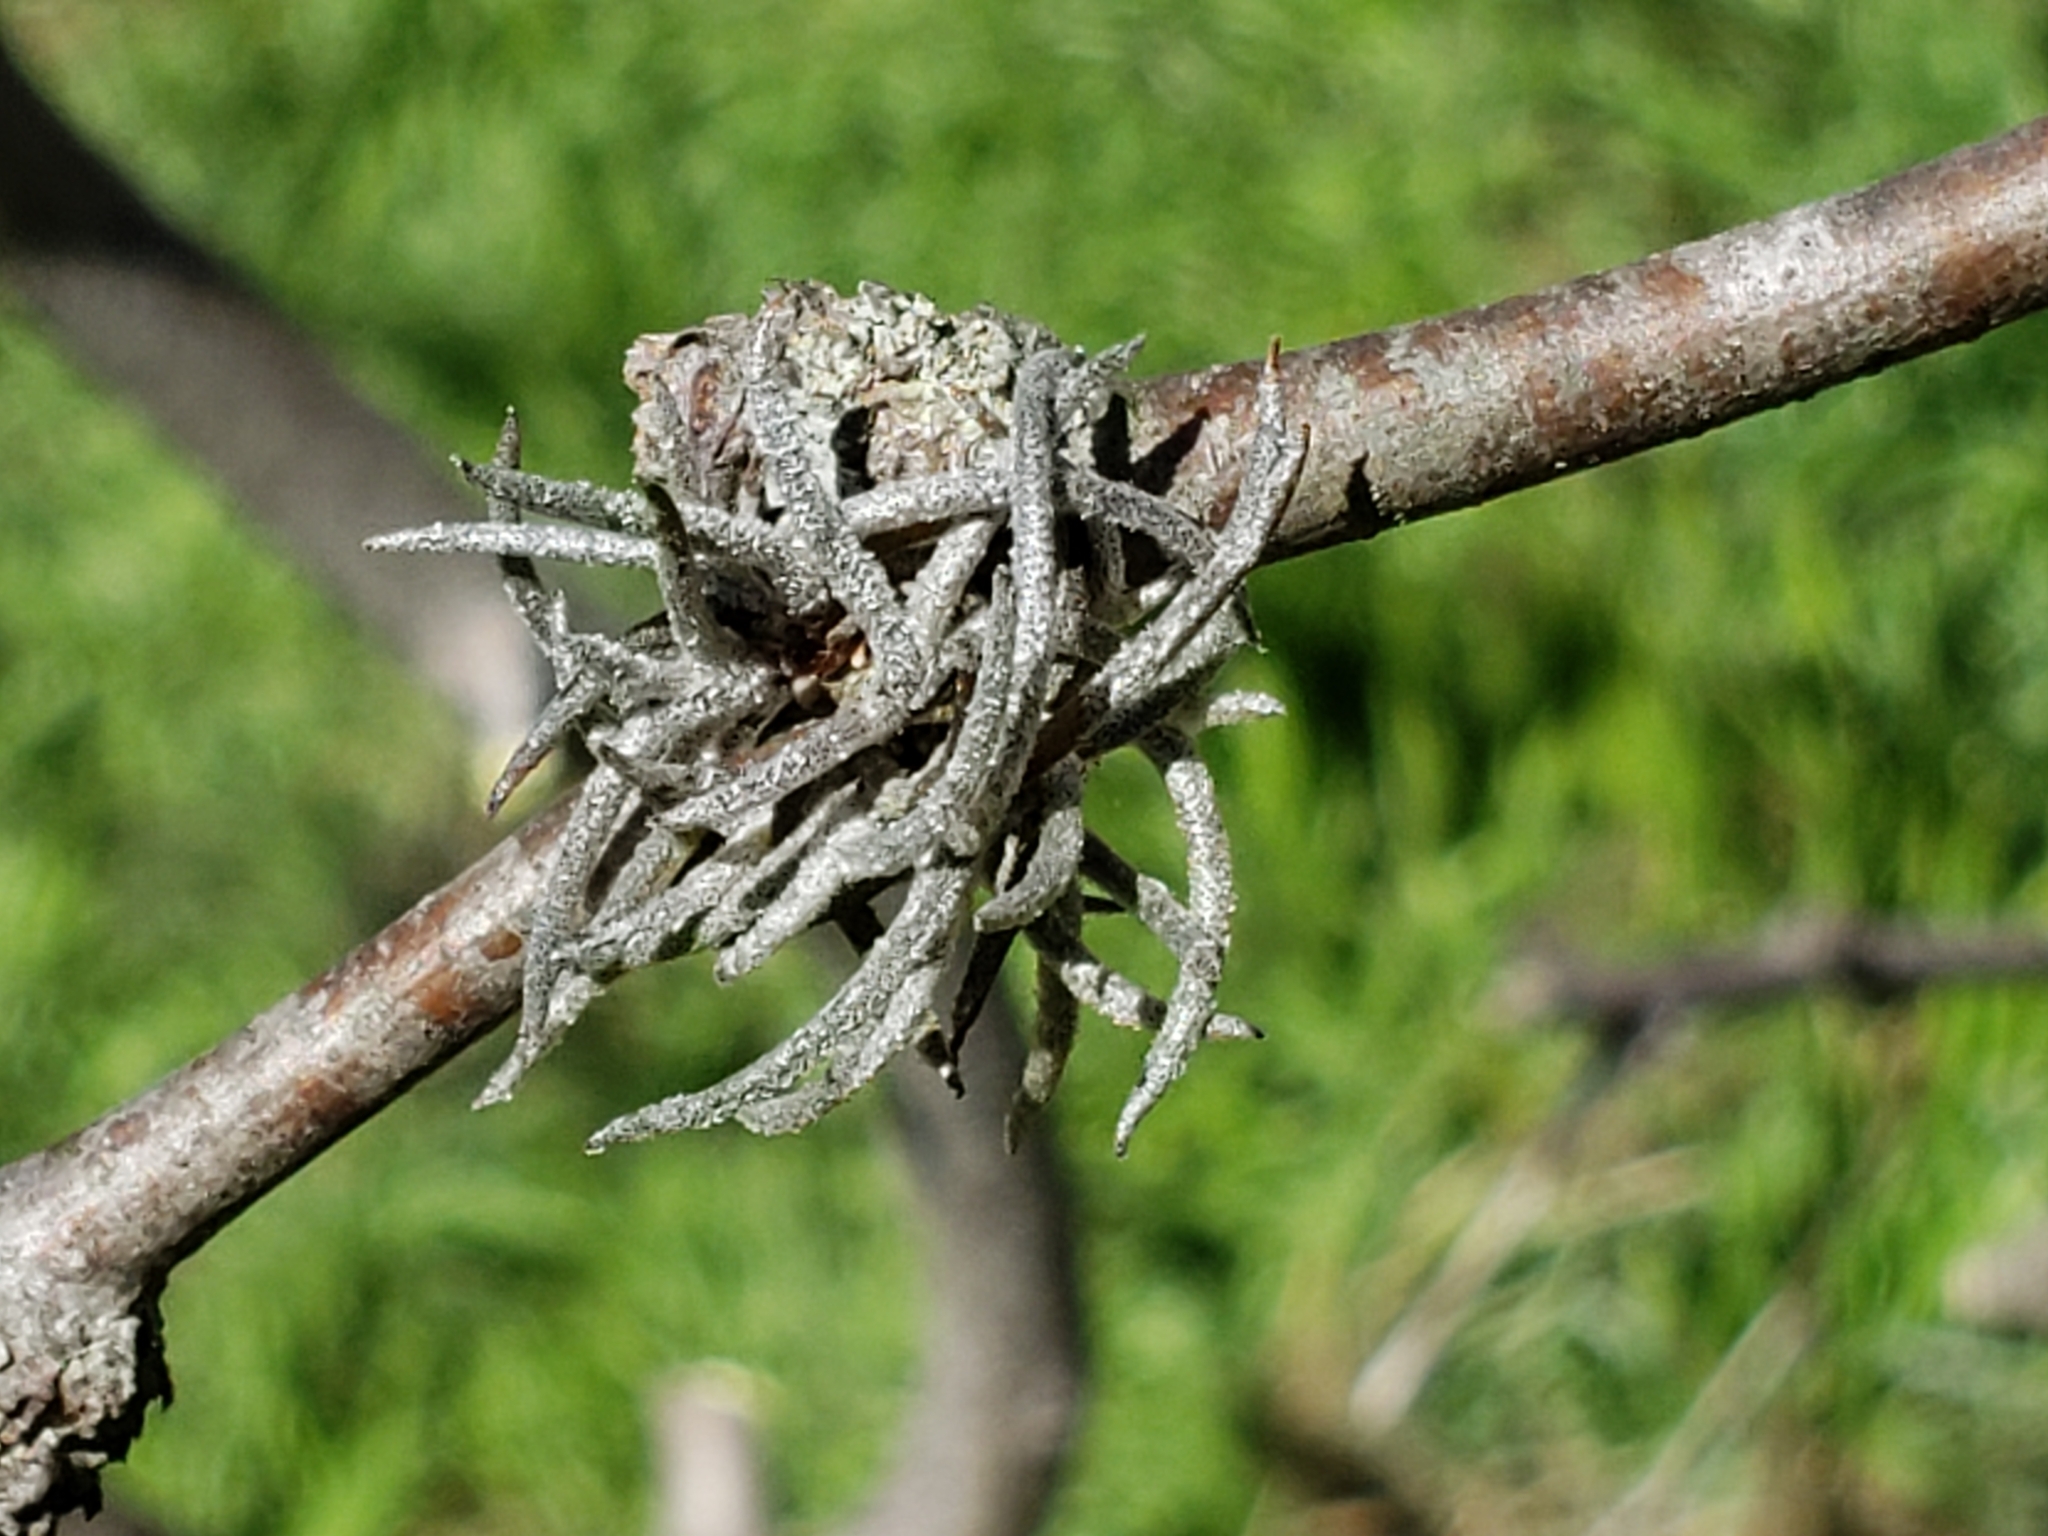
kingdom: Plantae
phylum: Tracheophyta
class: Liliopsida
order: Poales
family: Bromeliaceae
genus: Tillandsia
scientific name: Tillandsia recurvata
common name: Small ballmoss
